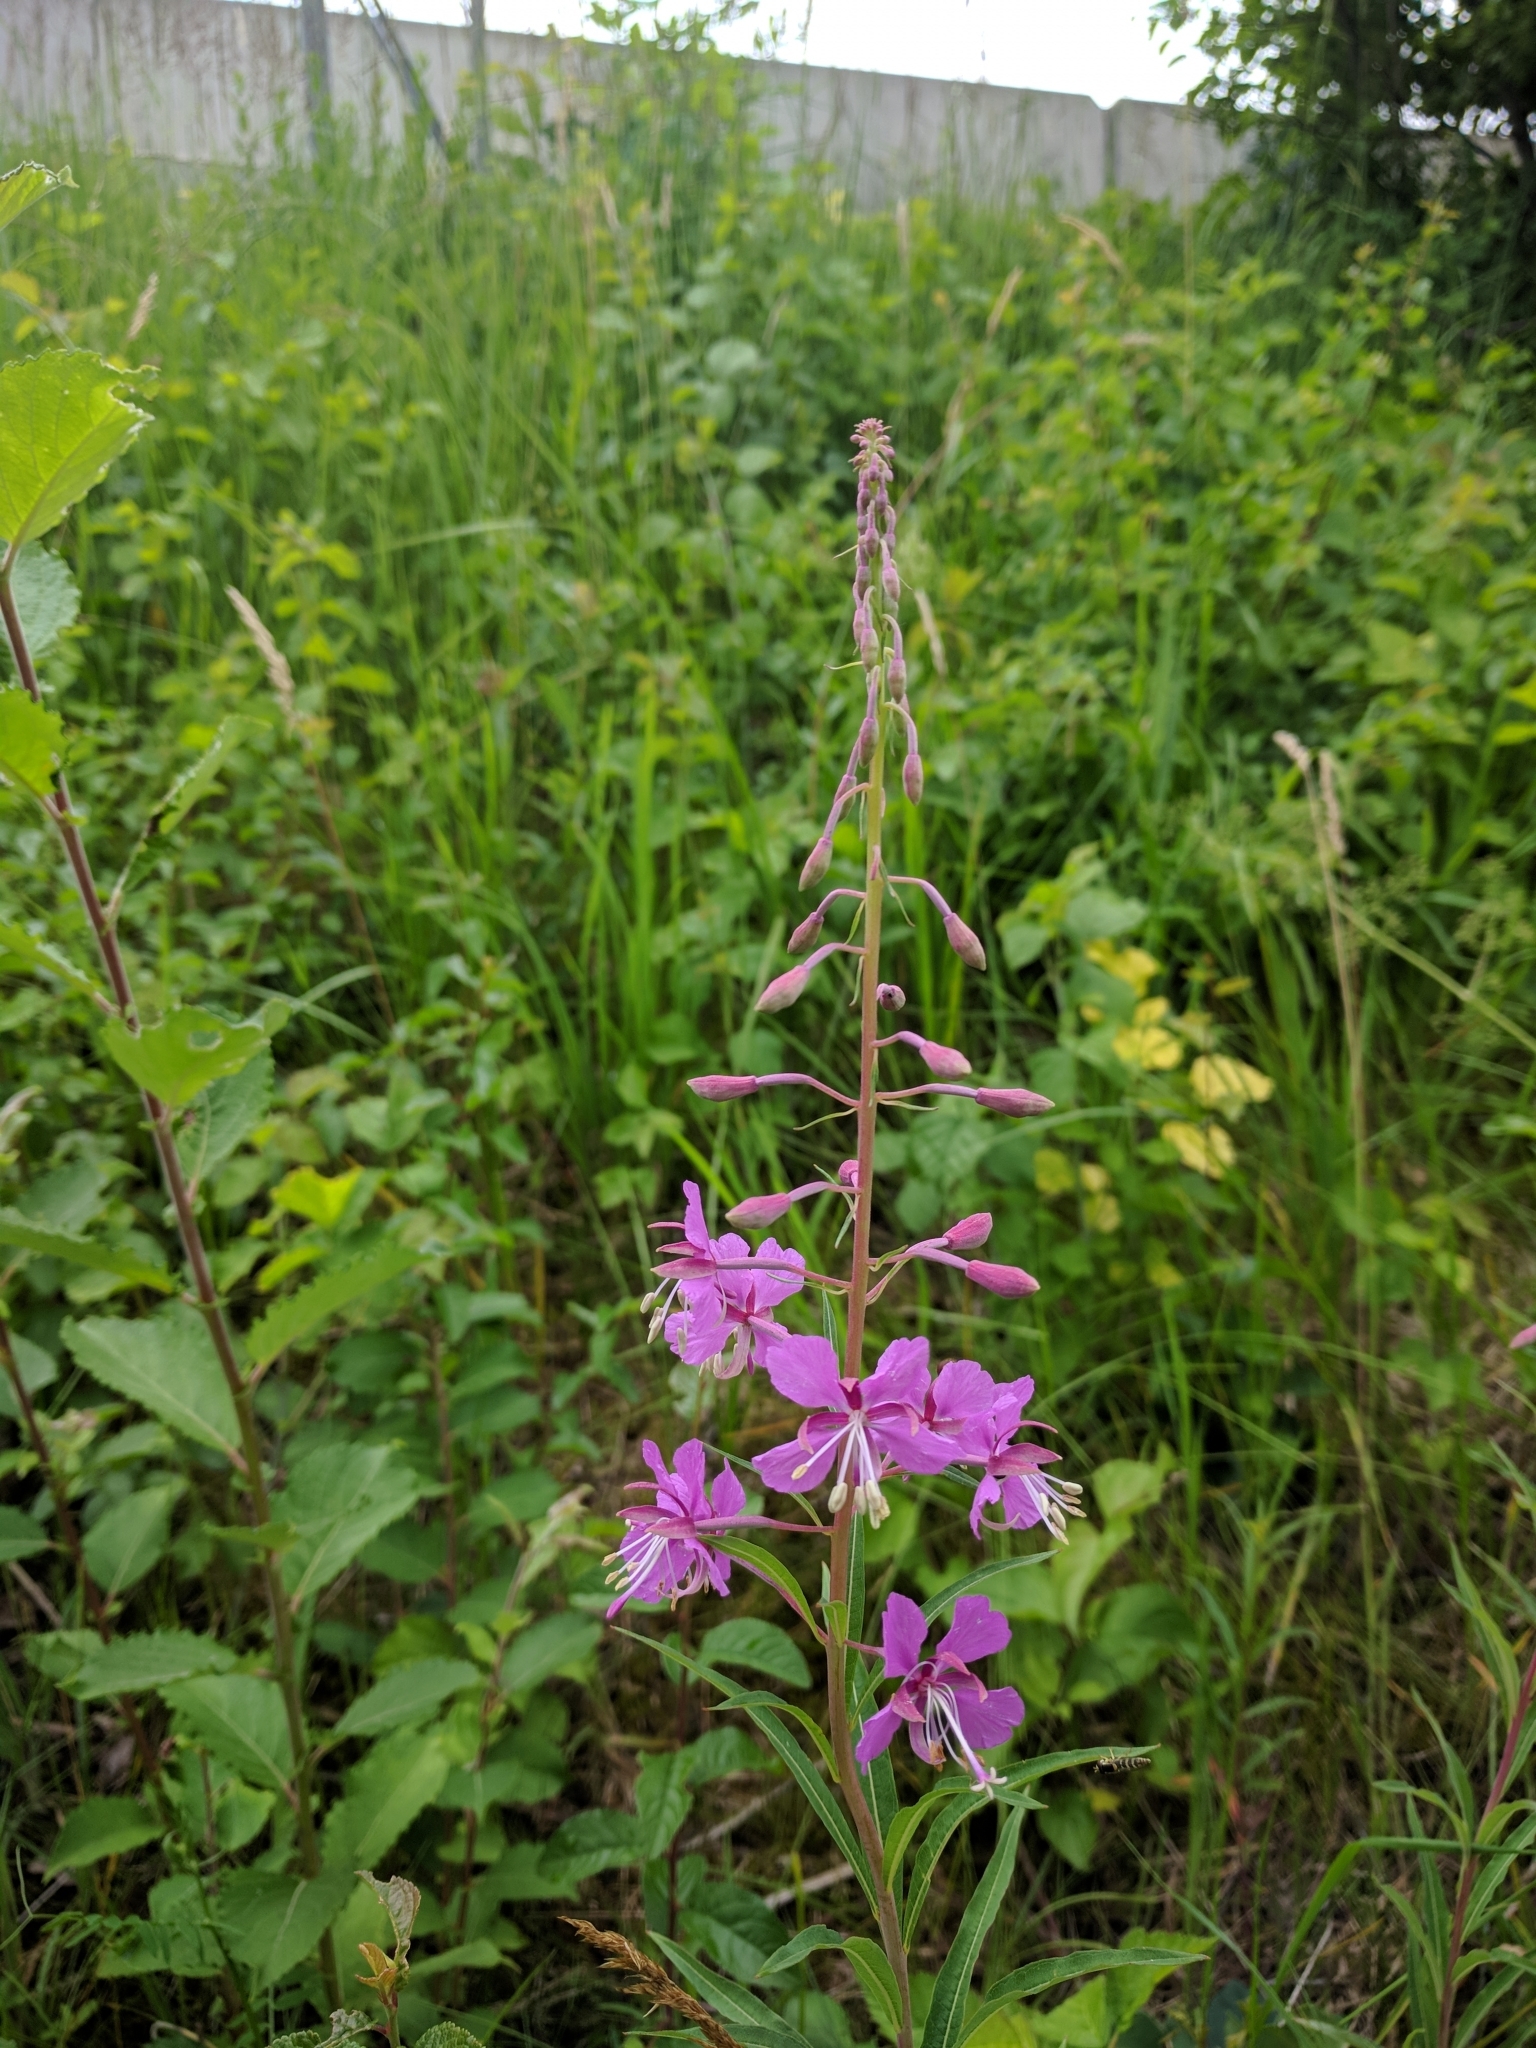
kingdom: Plantae
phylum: Tracheophyta
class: Magnoliopsida
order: Myrtales
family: Onagraceae
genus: Chamaenerion
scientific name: Chamaenerion angustifolium
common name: Fireweed
